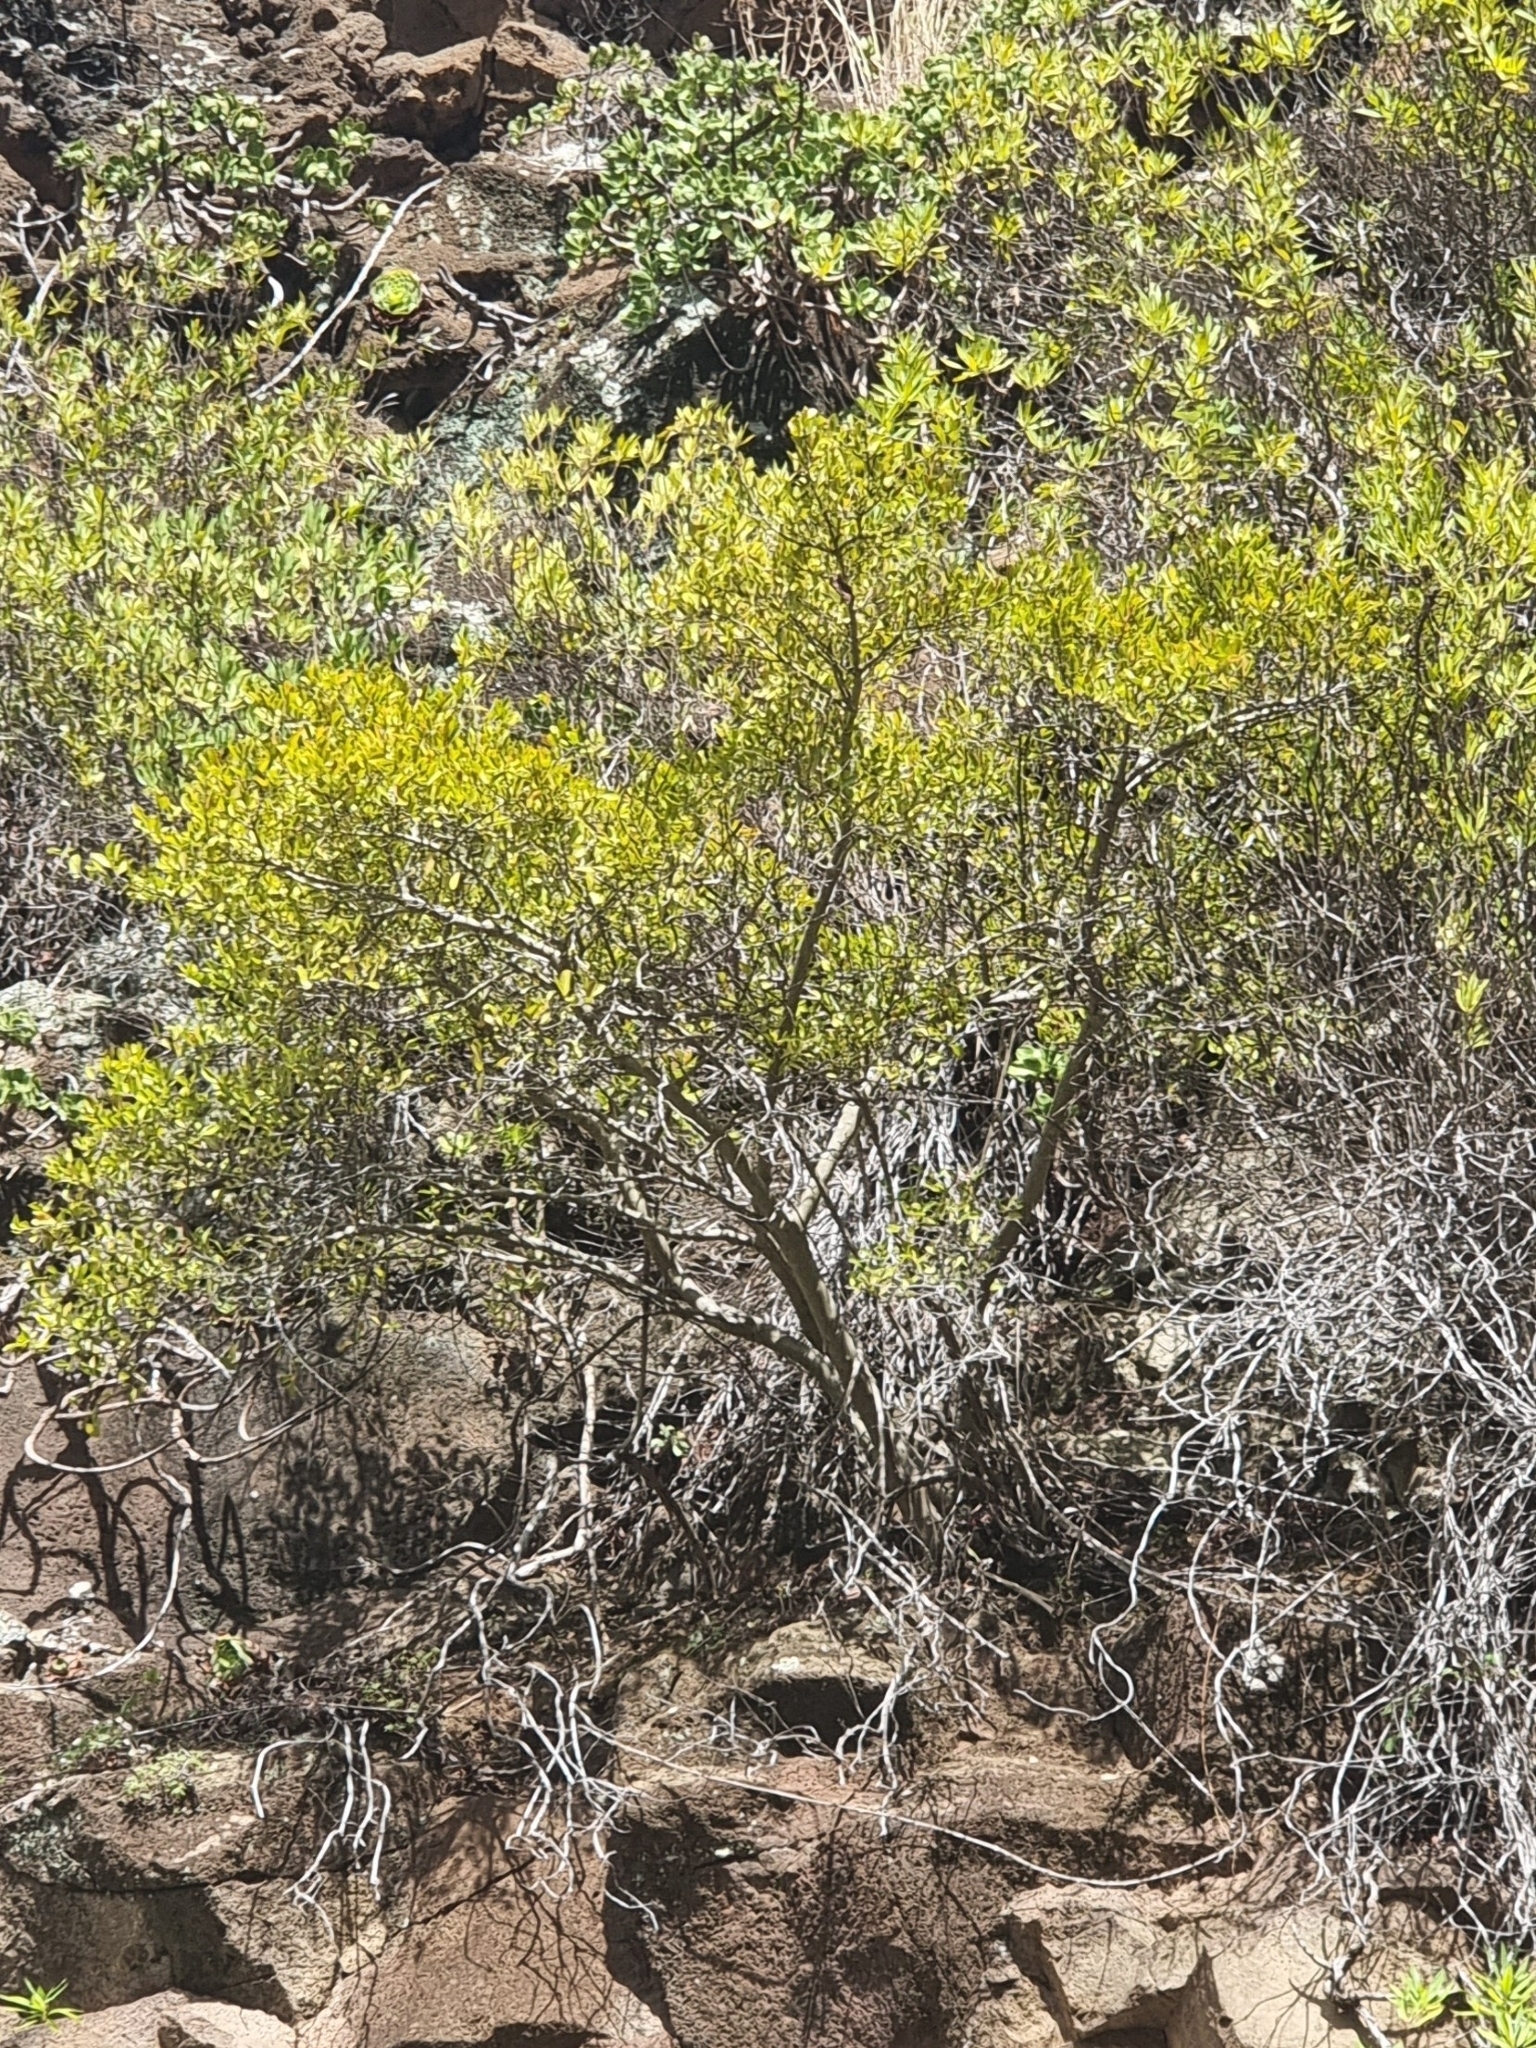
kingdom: Plantae
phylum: Tracheophyta
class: Magnoliopsida
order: Celastrales
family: Celastraceae
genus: Gymnosporia
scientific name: Gymnosporia dryandri
